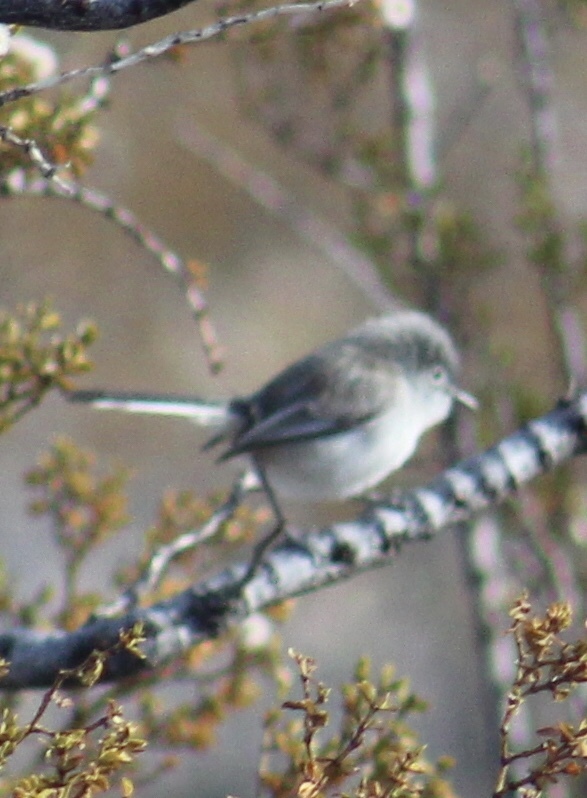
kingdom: Animalia
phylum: Chordata
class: Aves
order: Passeriformes
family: Polioptilidae
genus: Polioptila
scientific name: Polioptila caerulea
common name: Blue-gray gnatcatcher
